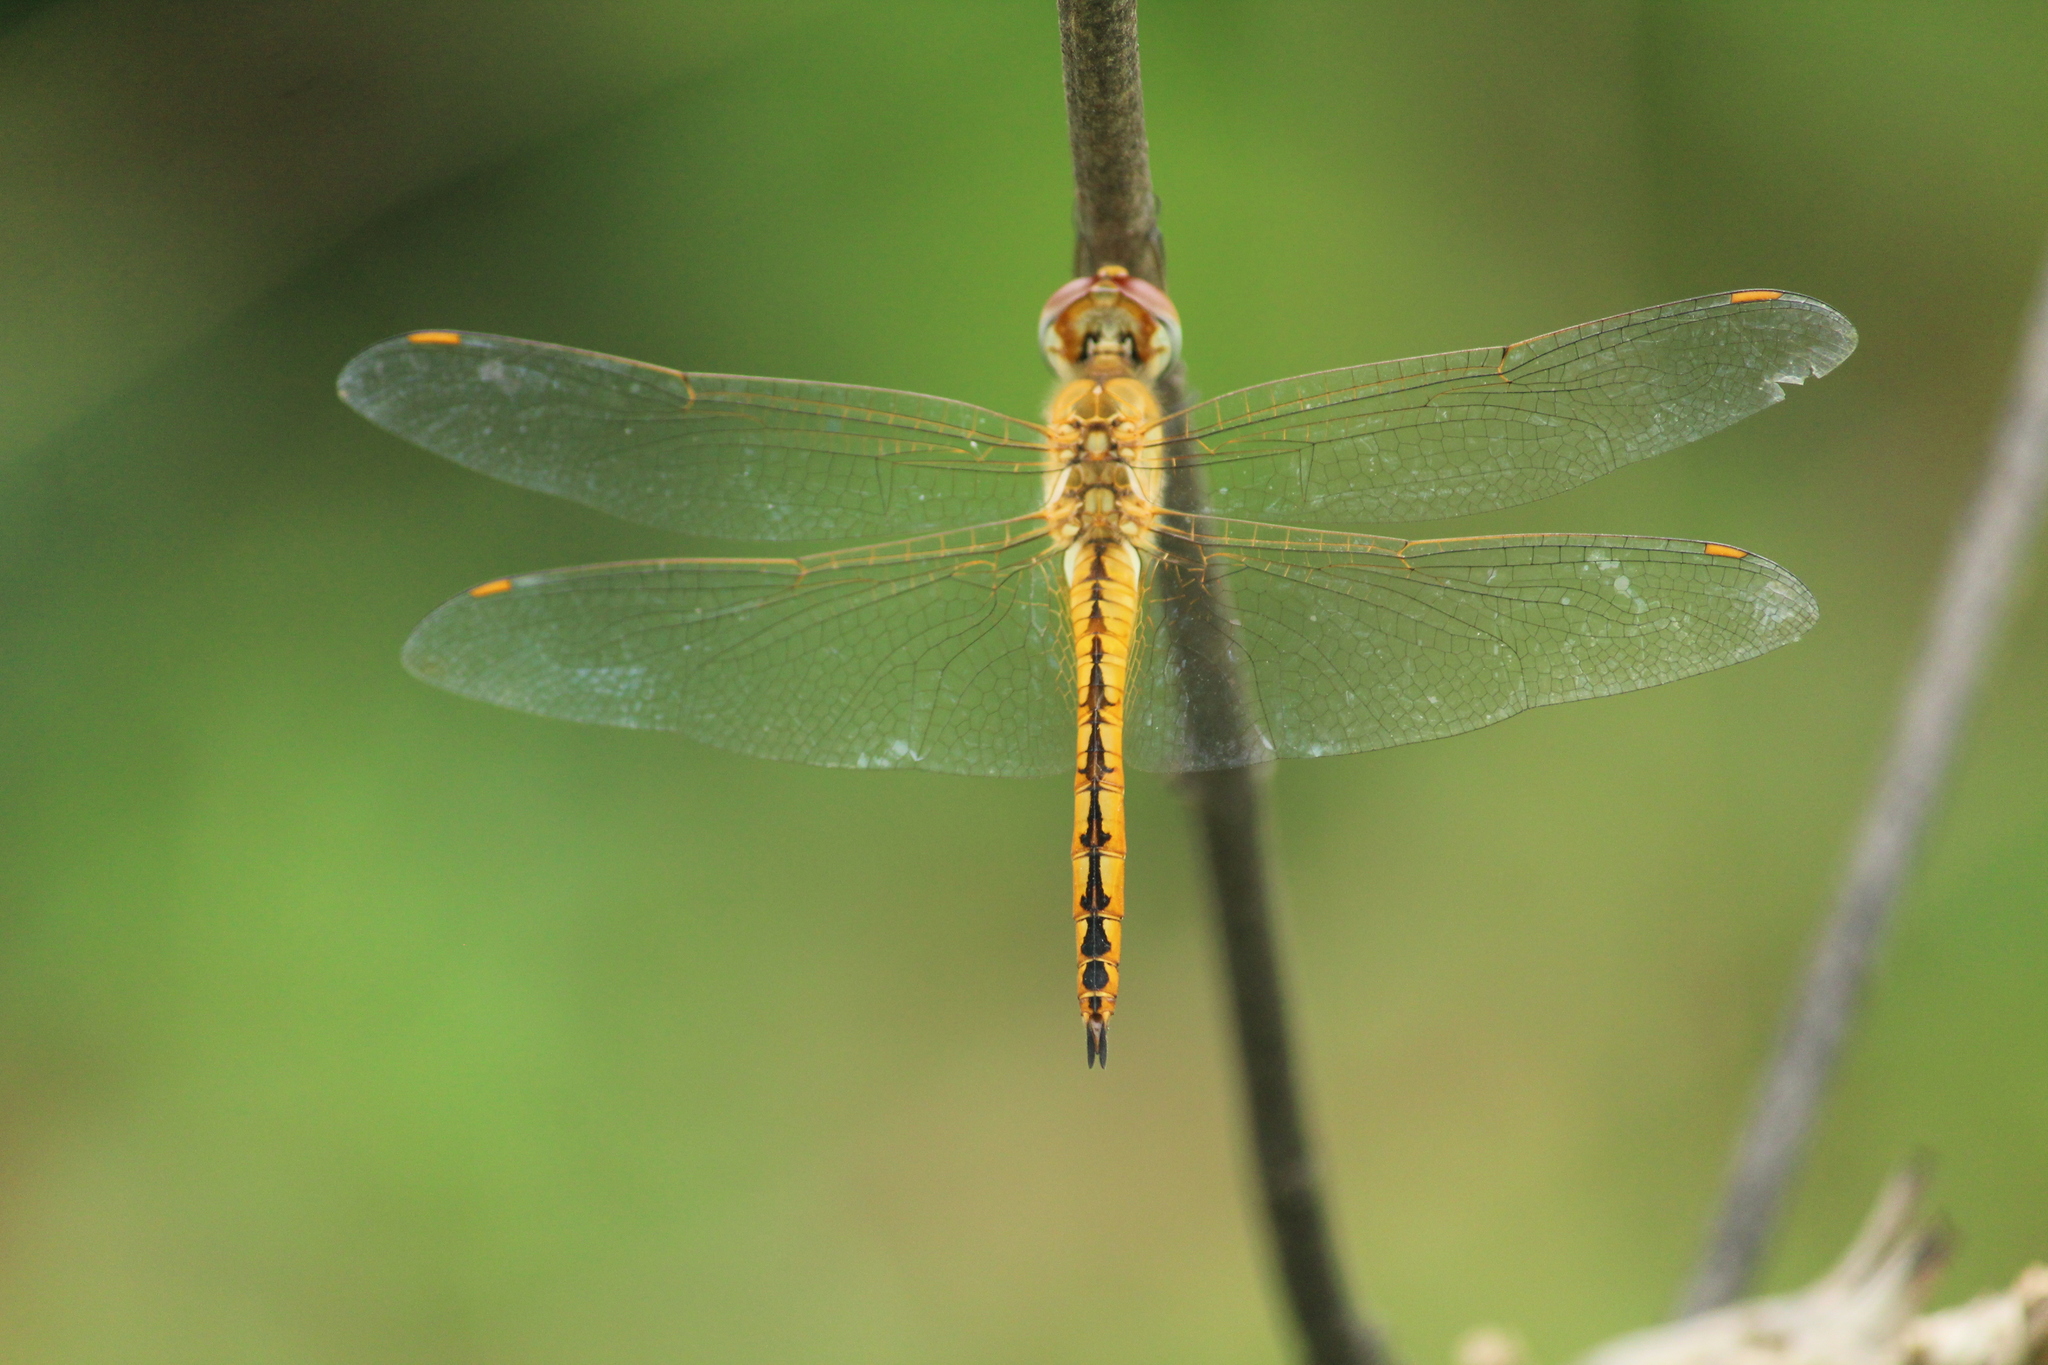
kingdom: Animalia
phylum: Arthropoda
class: Insecta
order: Odonata
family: Libellulidae
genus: Pantala
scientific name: Pantala flavescens
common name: Wandering glider
